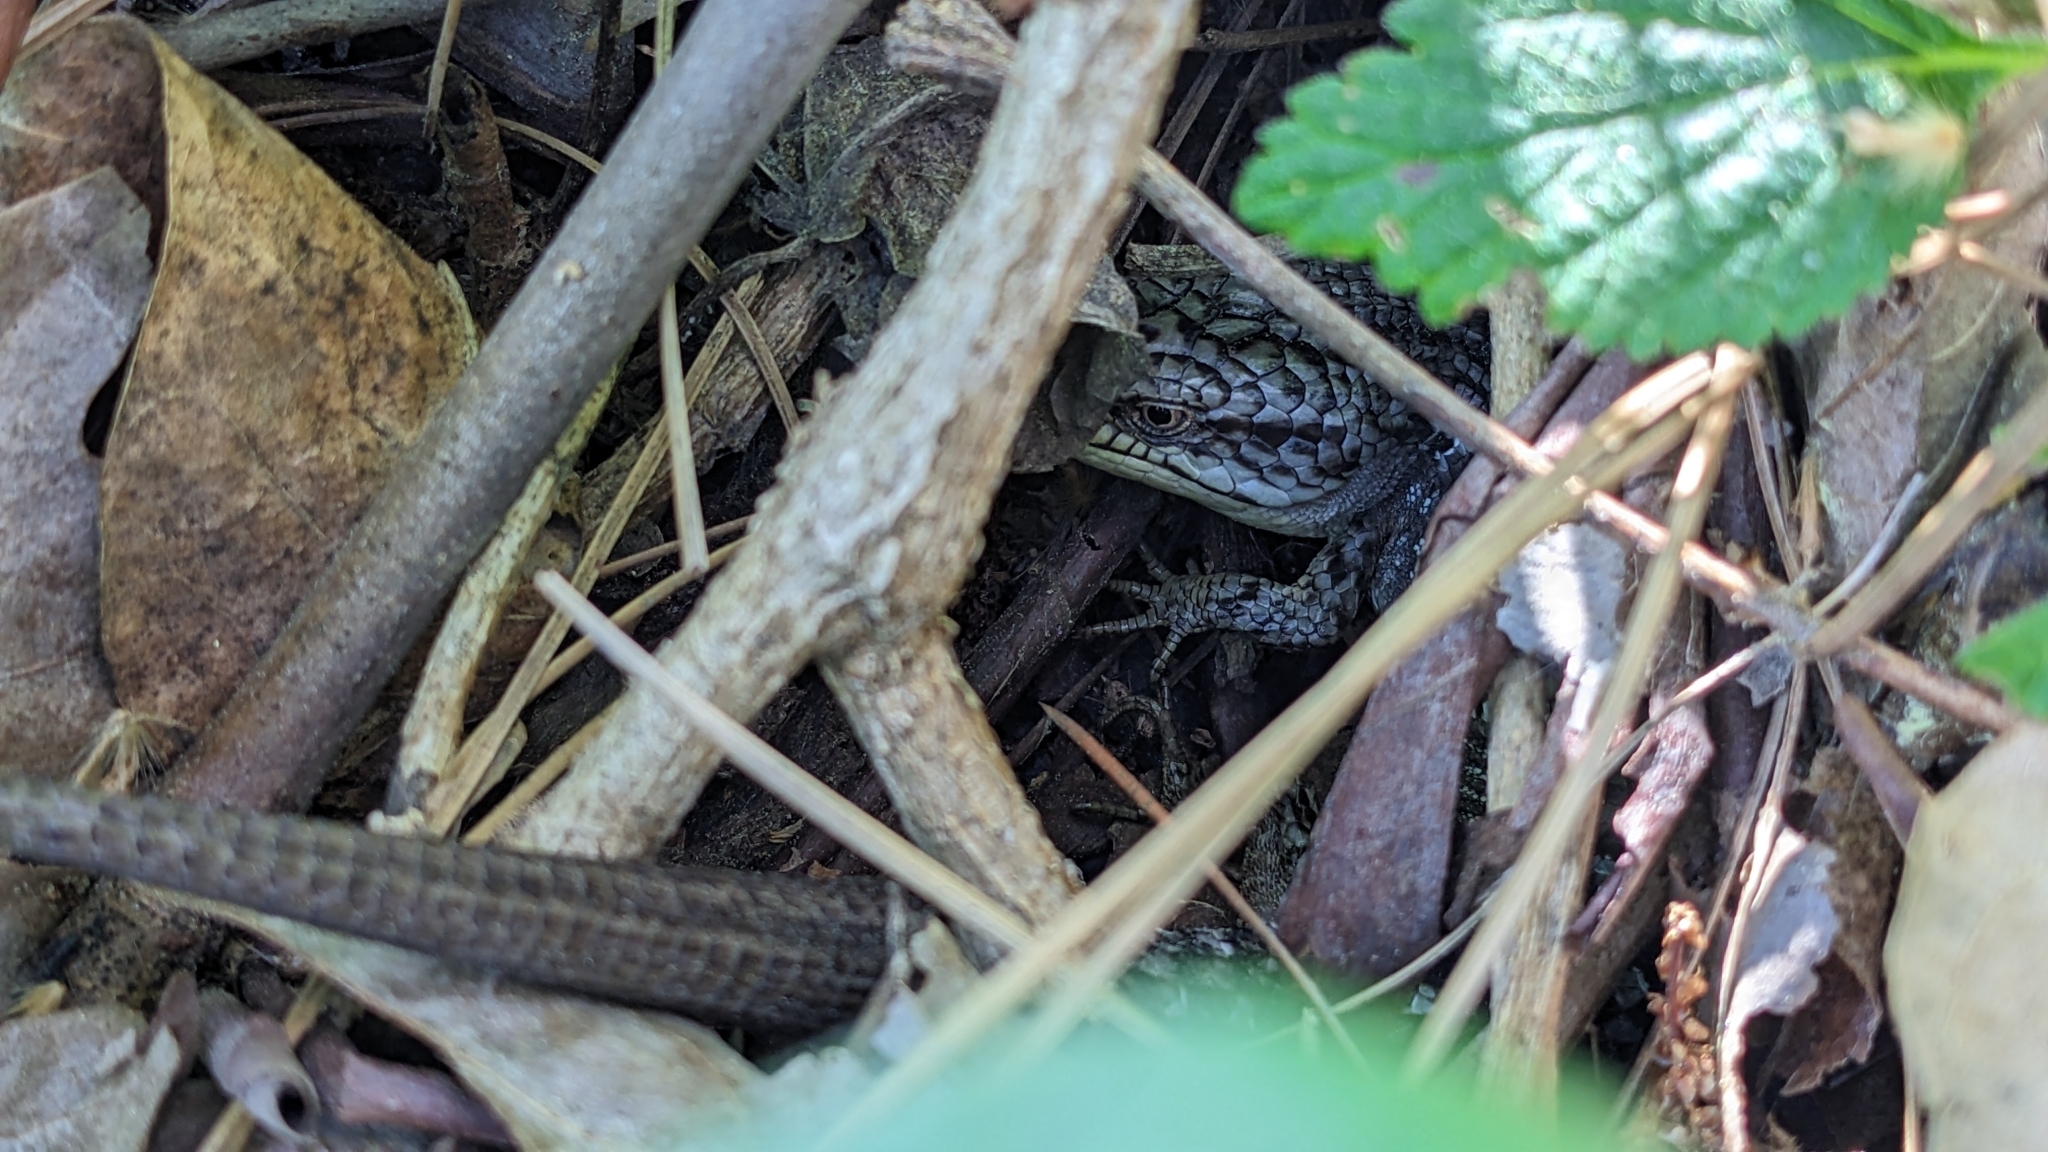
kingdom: Animalia
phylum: Chordata
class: Squamata
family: Anguidae
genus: Elgaria
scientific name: Elgaria multicarinata
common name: Southern alligator lizard
